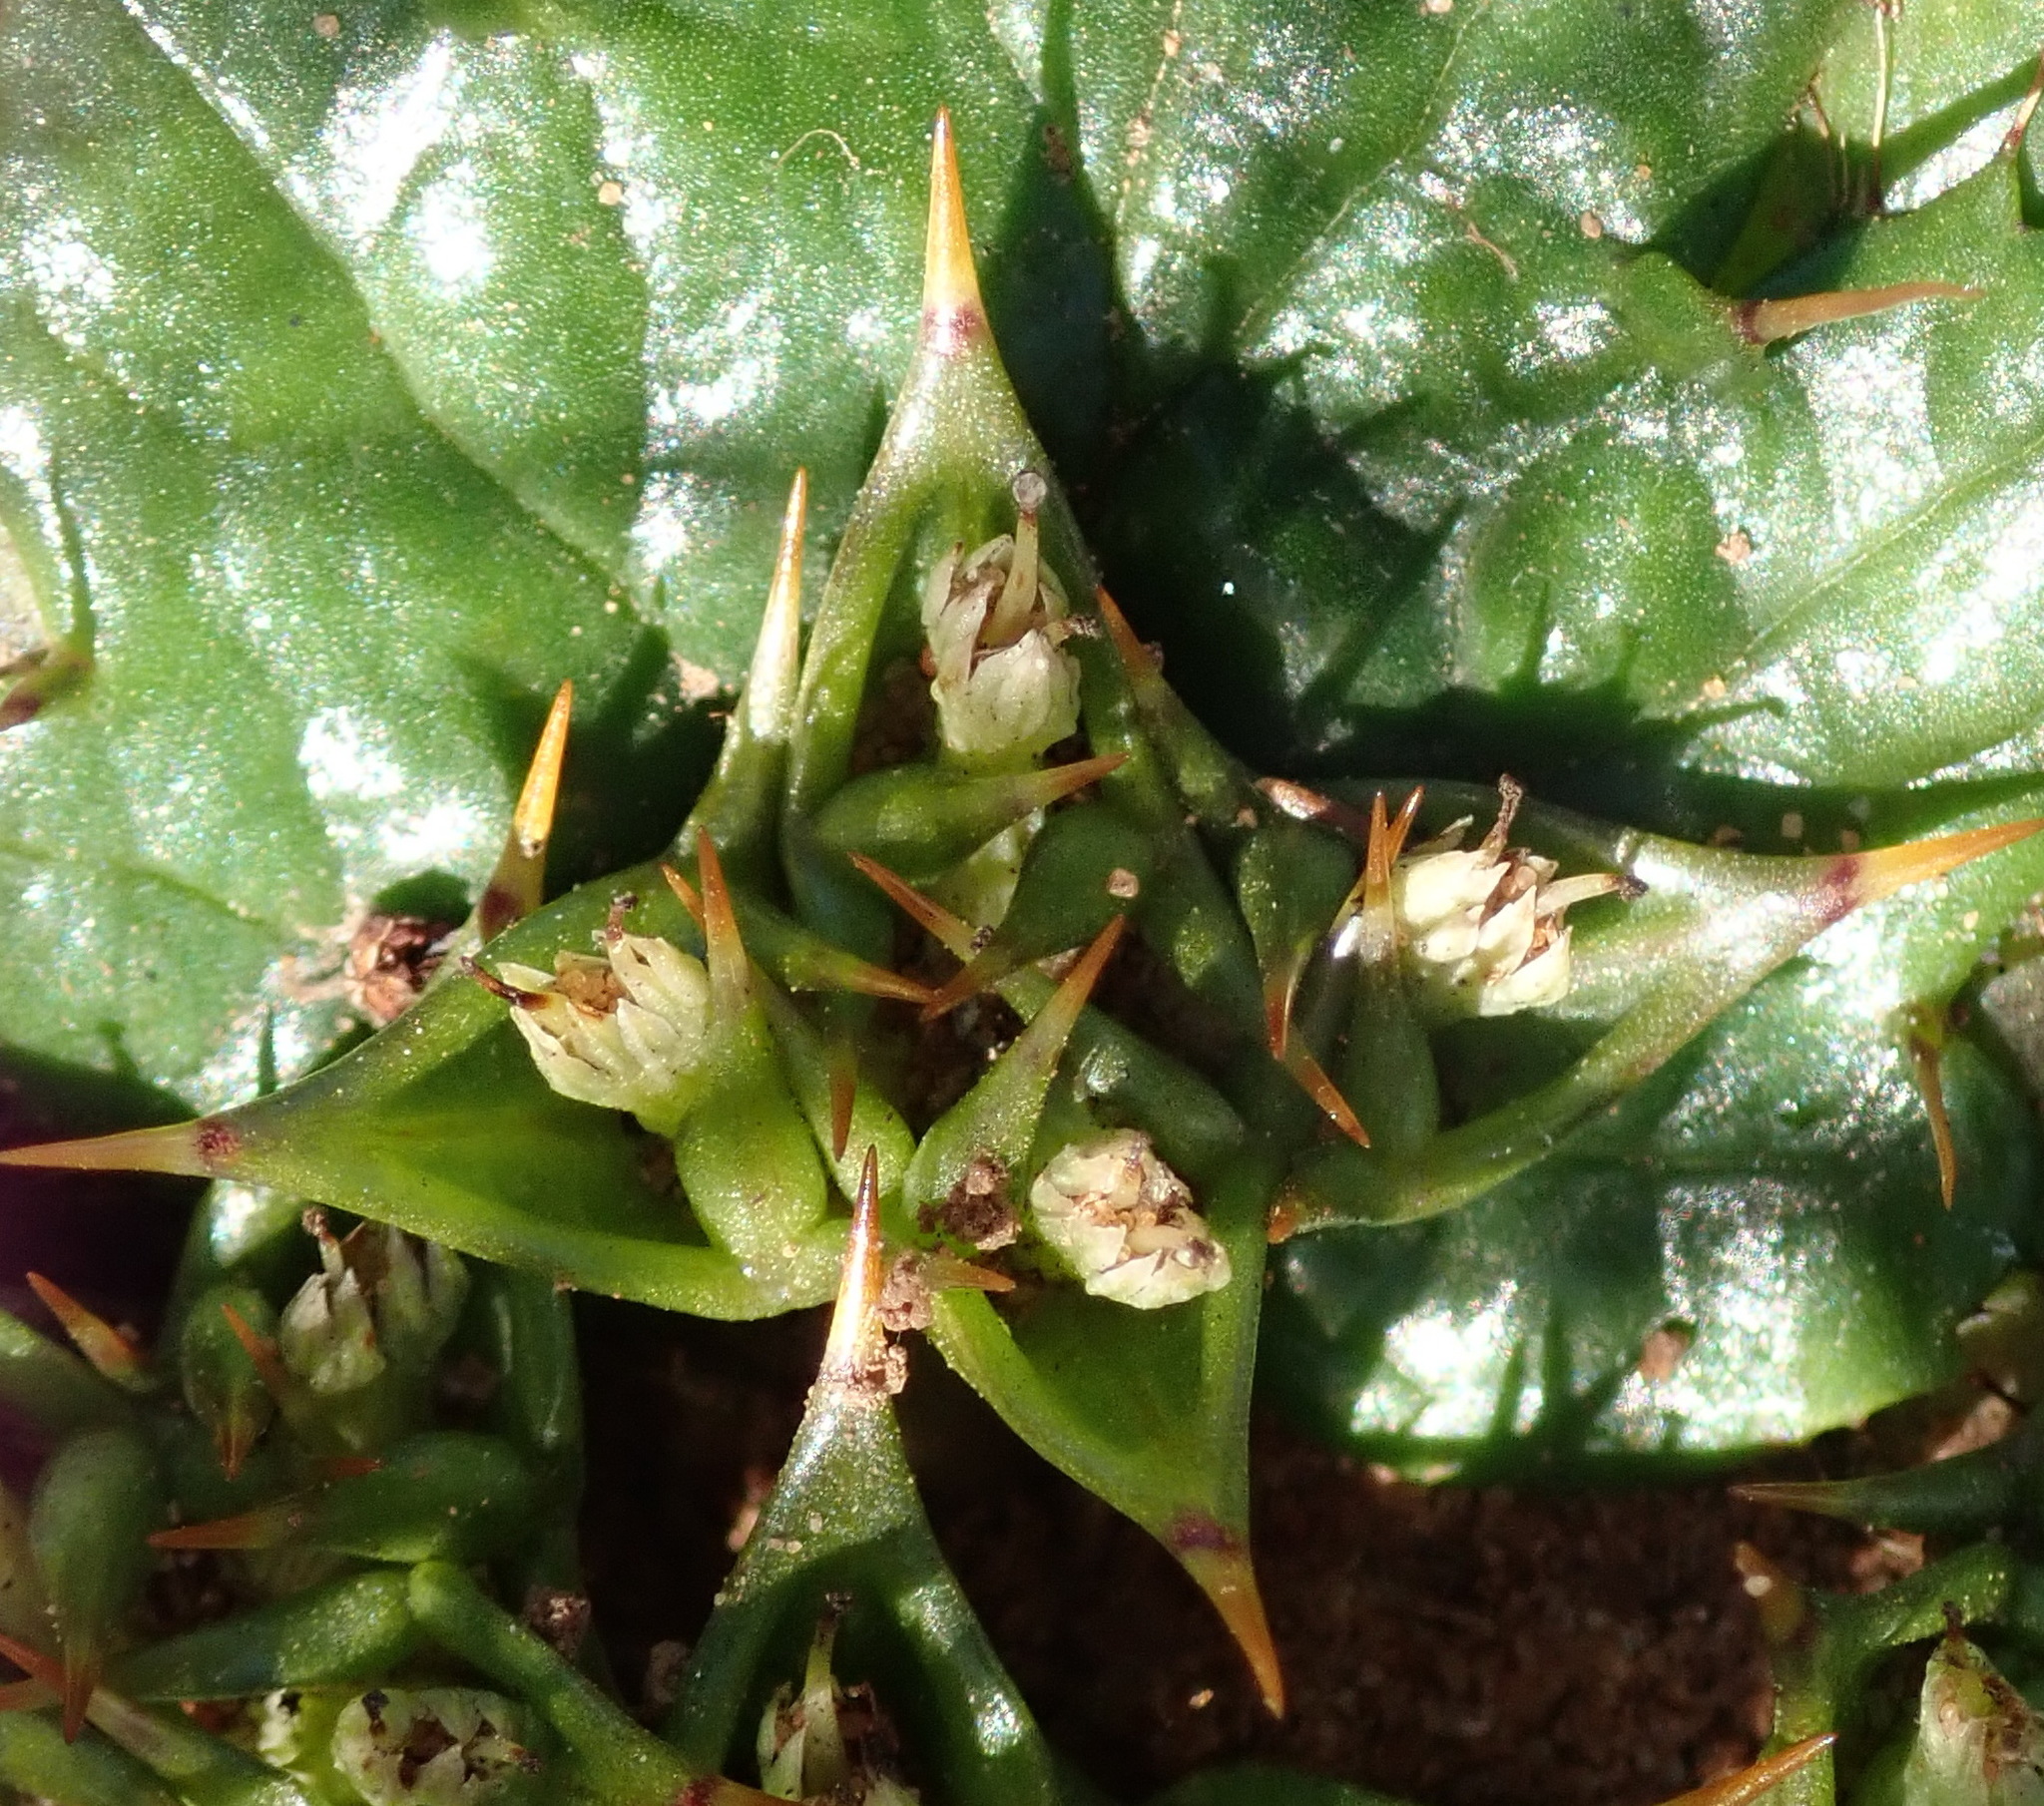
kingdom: Plantae
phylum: Tracheophyta
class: Magnoliopsida
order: Apiales
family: Apiaceae
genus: Arctopus
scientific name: Arctopus echinatus
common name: Platdoring
